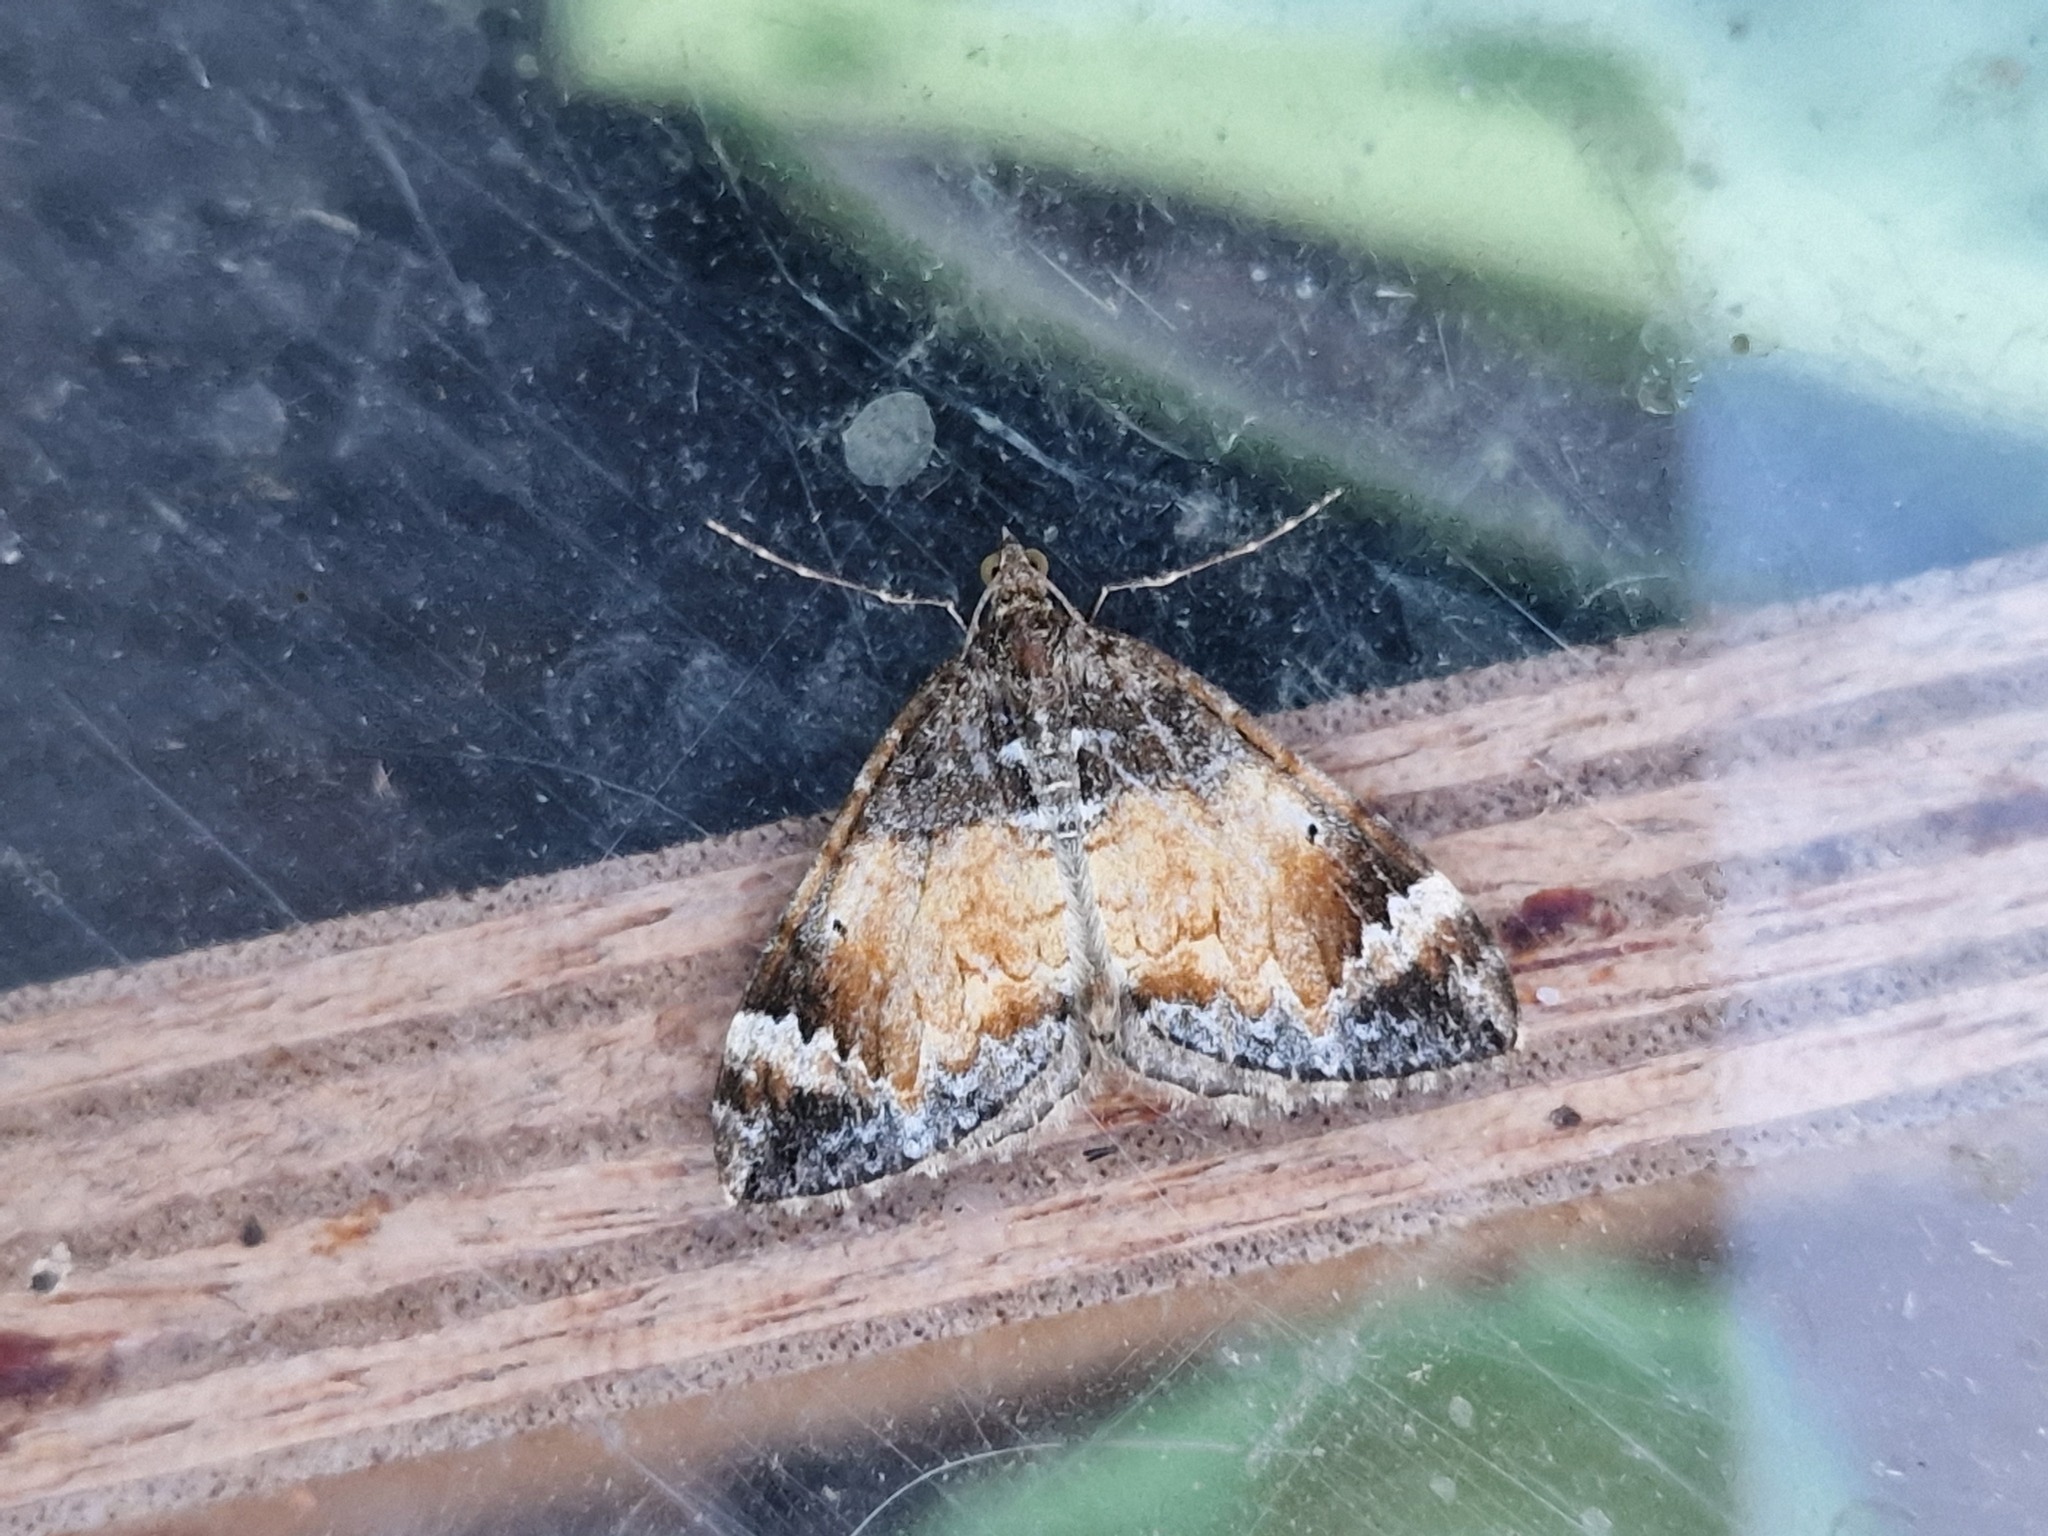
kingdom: Animalia
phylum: Arthropoda
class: Insecta
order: Lepidoptera
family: Geometridae
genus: Dysstroma
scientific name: Dysstroma truncata
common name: Common marbled carpet
